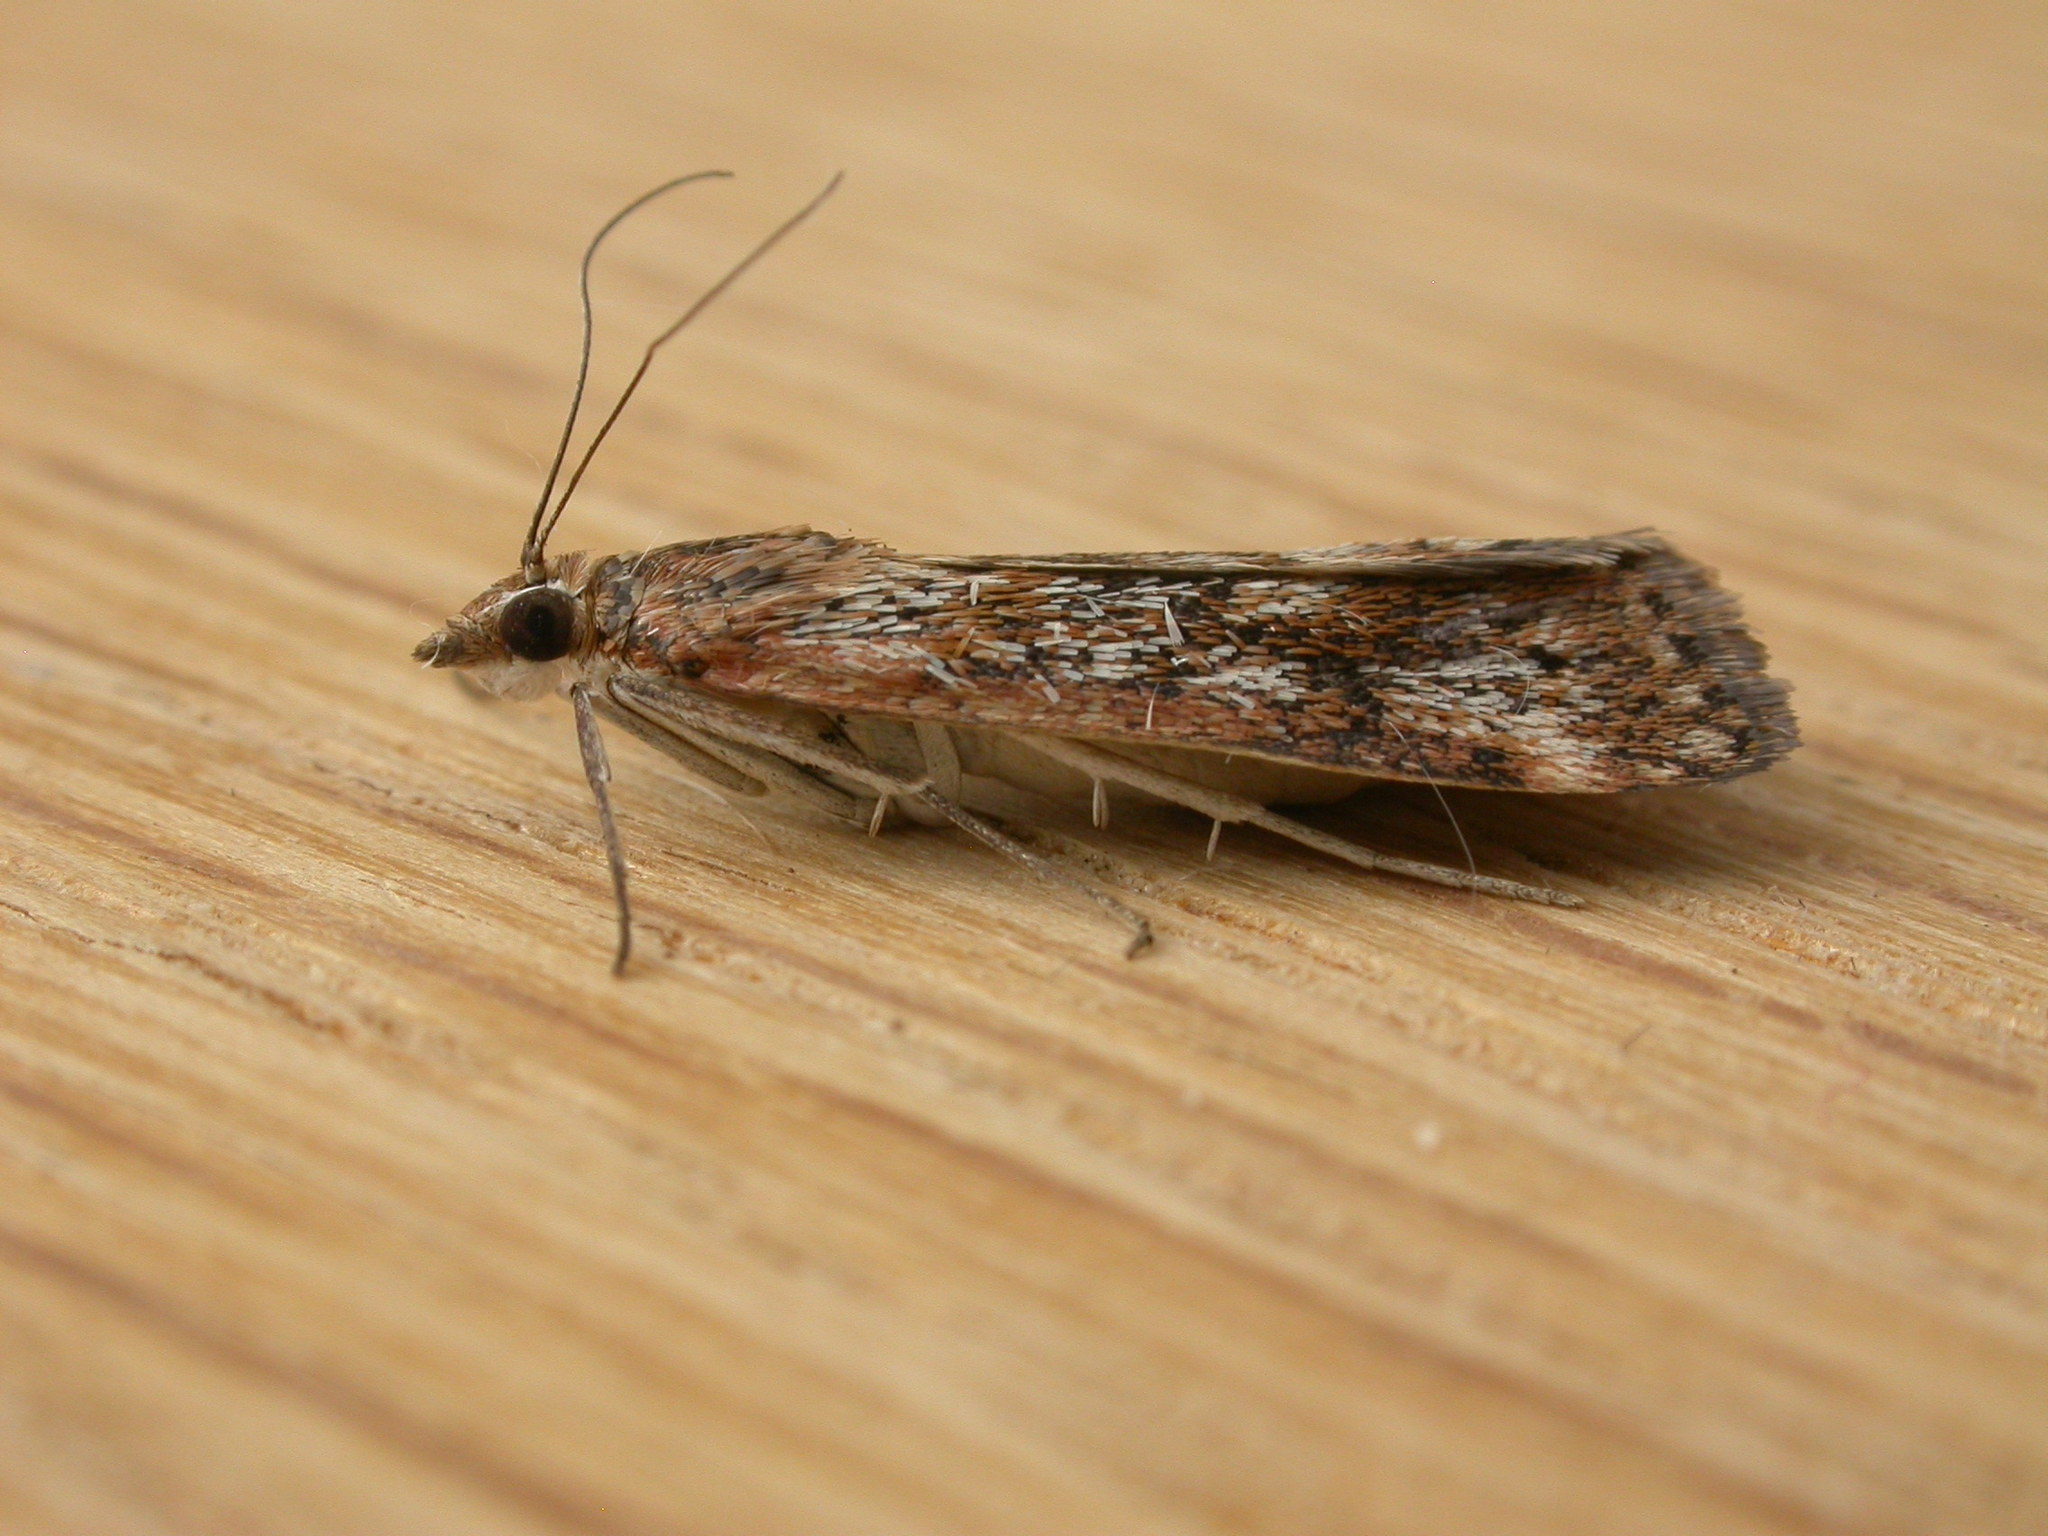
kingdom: Animalia
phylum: Arthropoda
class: Insecta
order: Lepidoptera
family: Crambidae
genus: Achyra
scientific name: Achyra affinitalis
